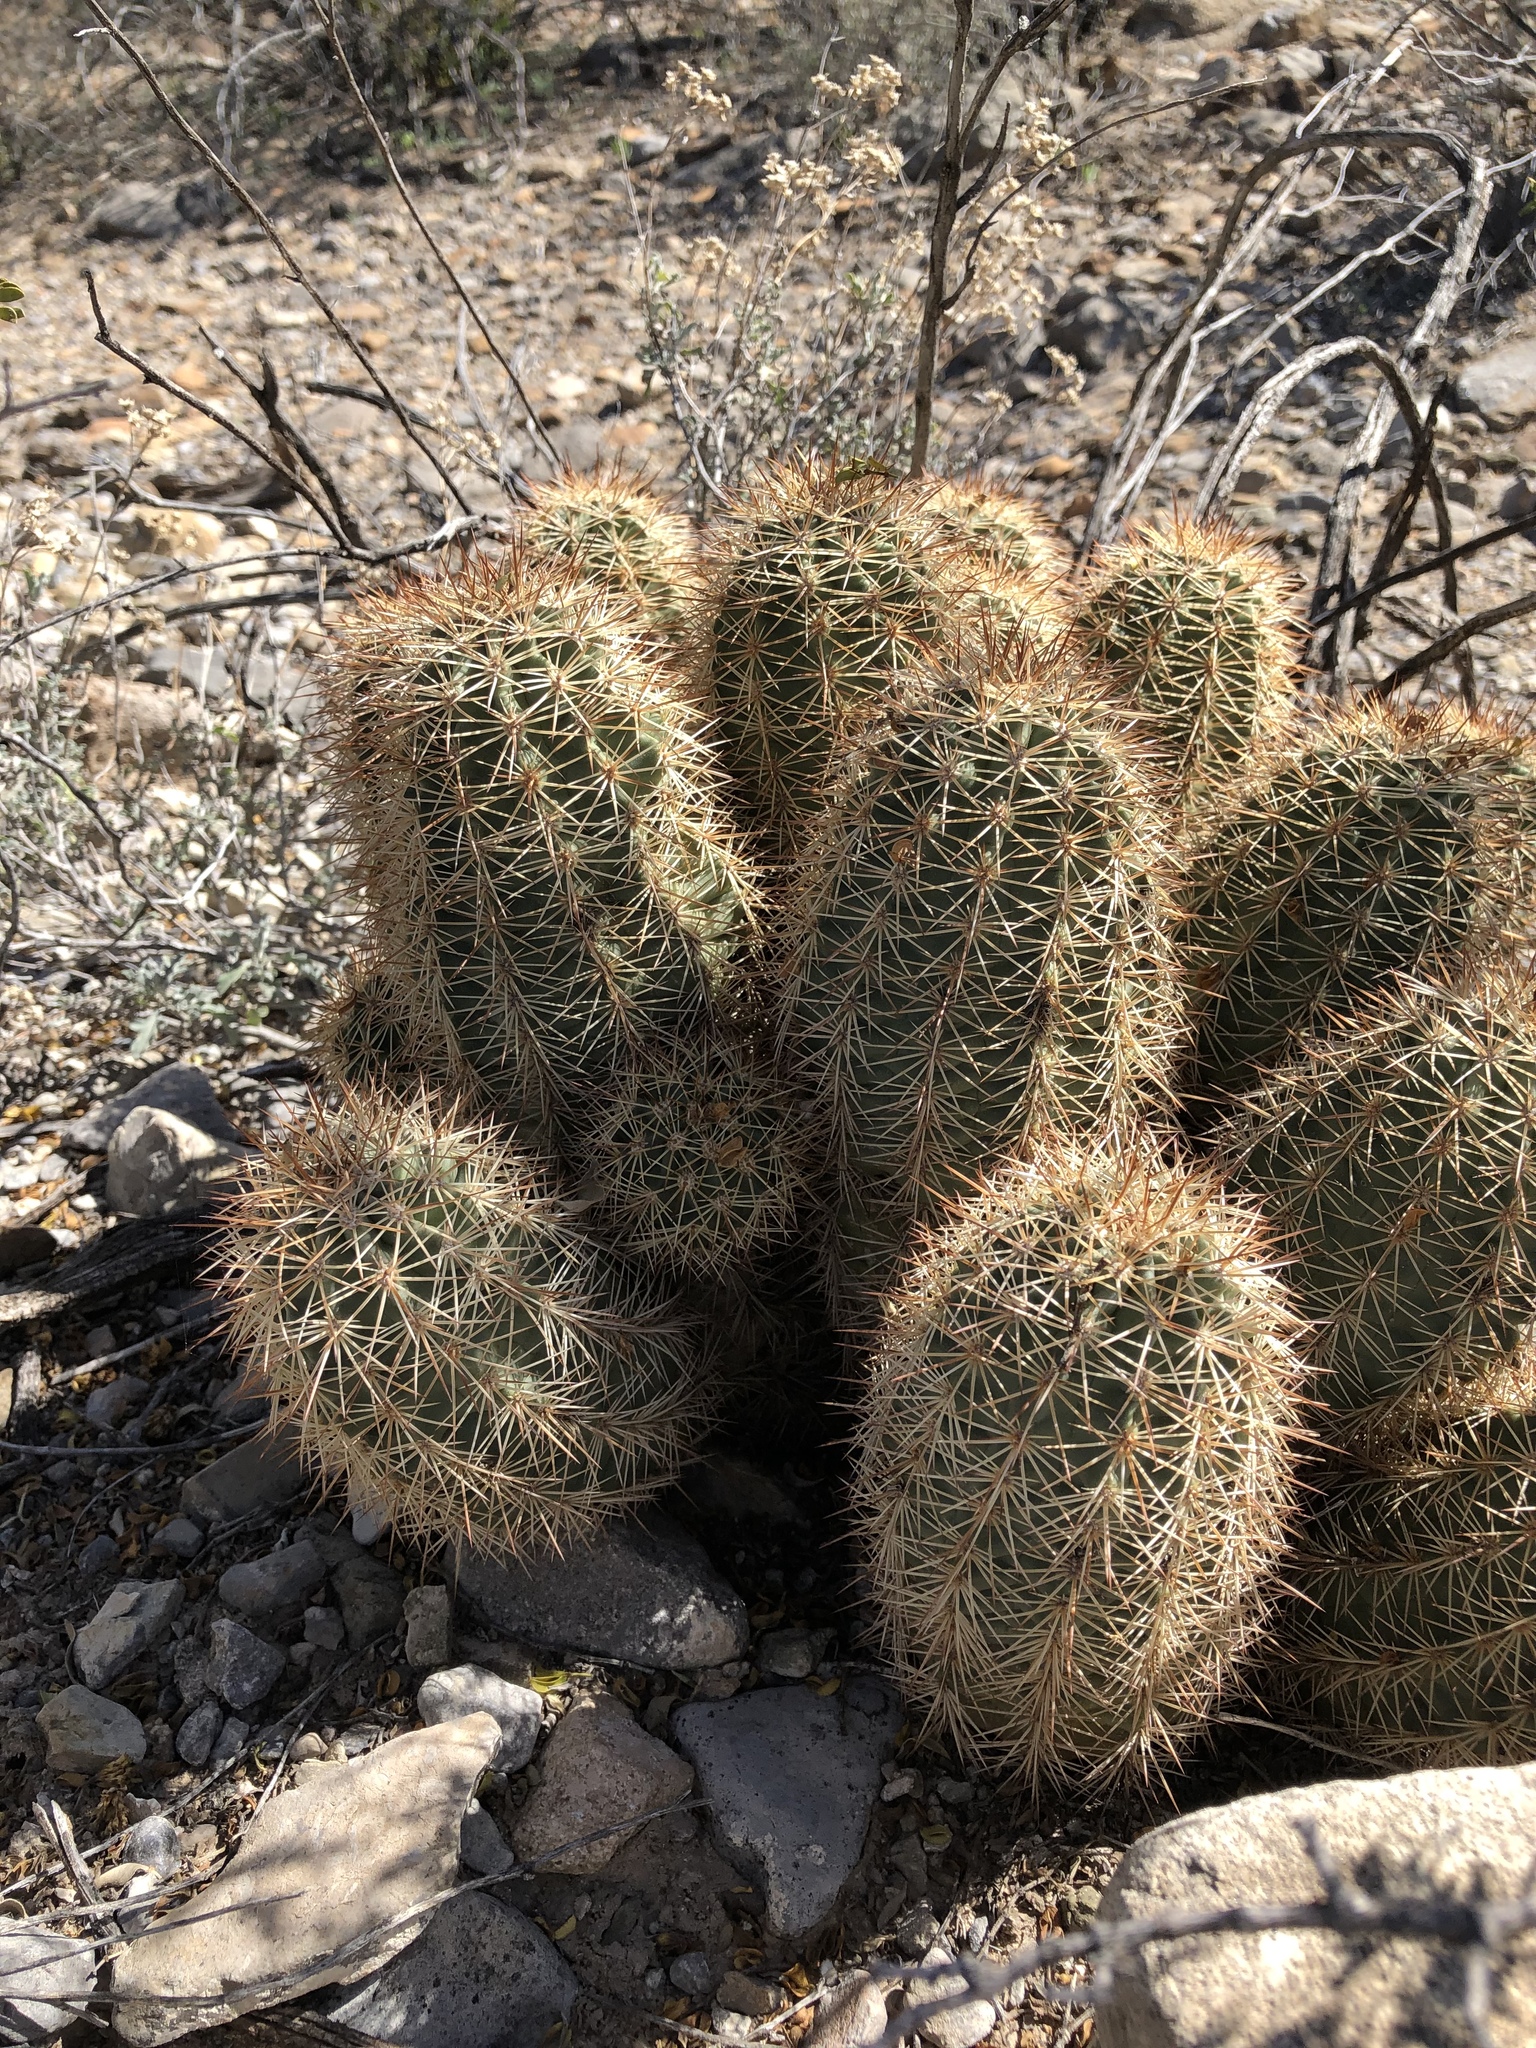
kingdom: Plantae
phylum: Tracheophyta
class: Magnoliopsida
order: Caryophyllales
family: Cactaceae
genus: Echinocereus
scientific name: Echinocereus roetteri
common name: Lloyd's hedgehog cactus
